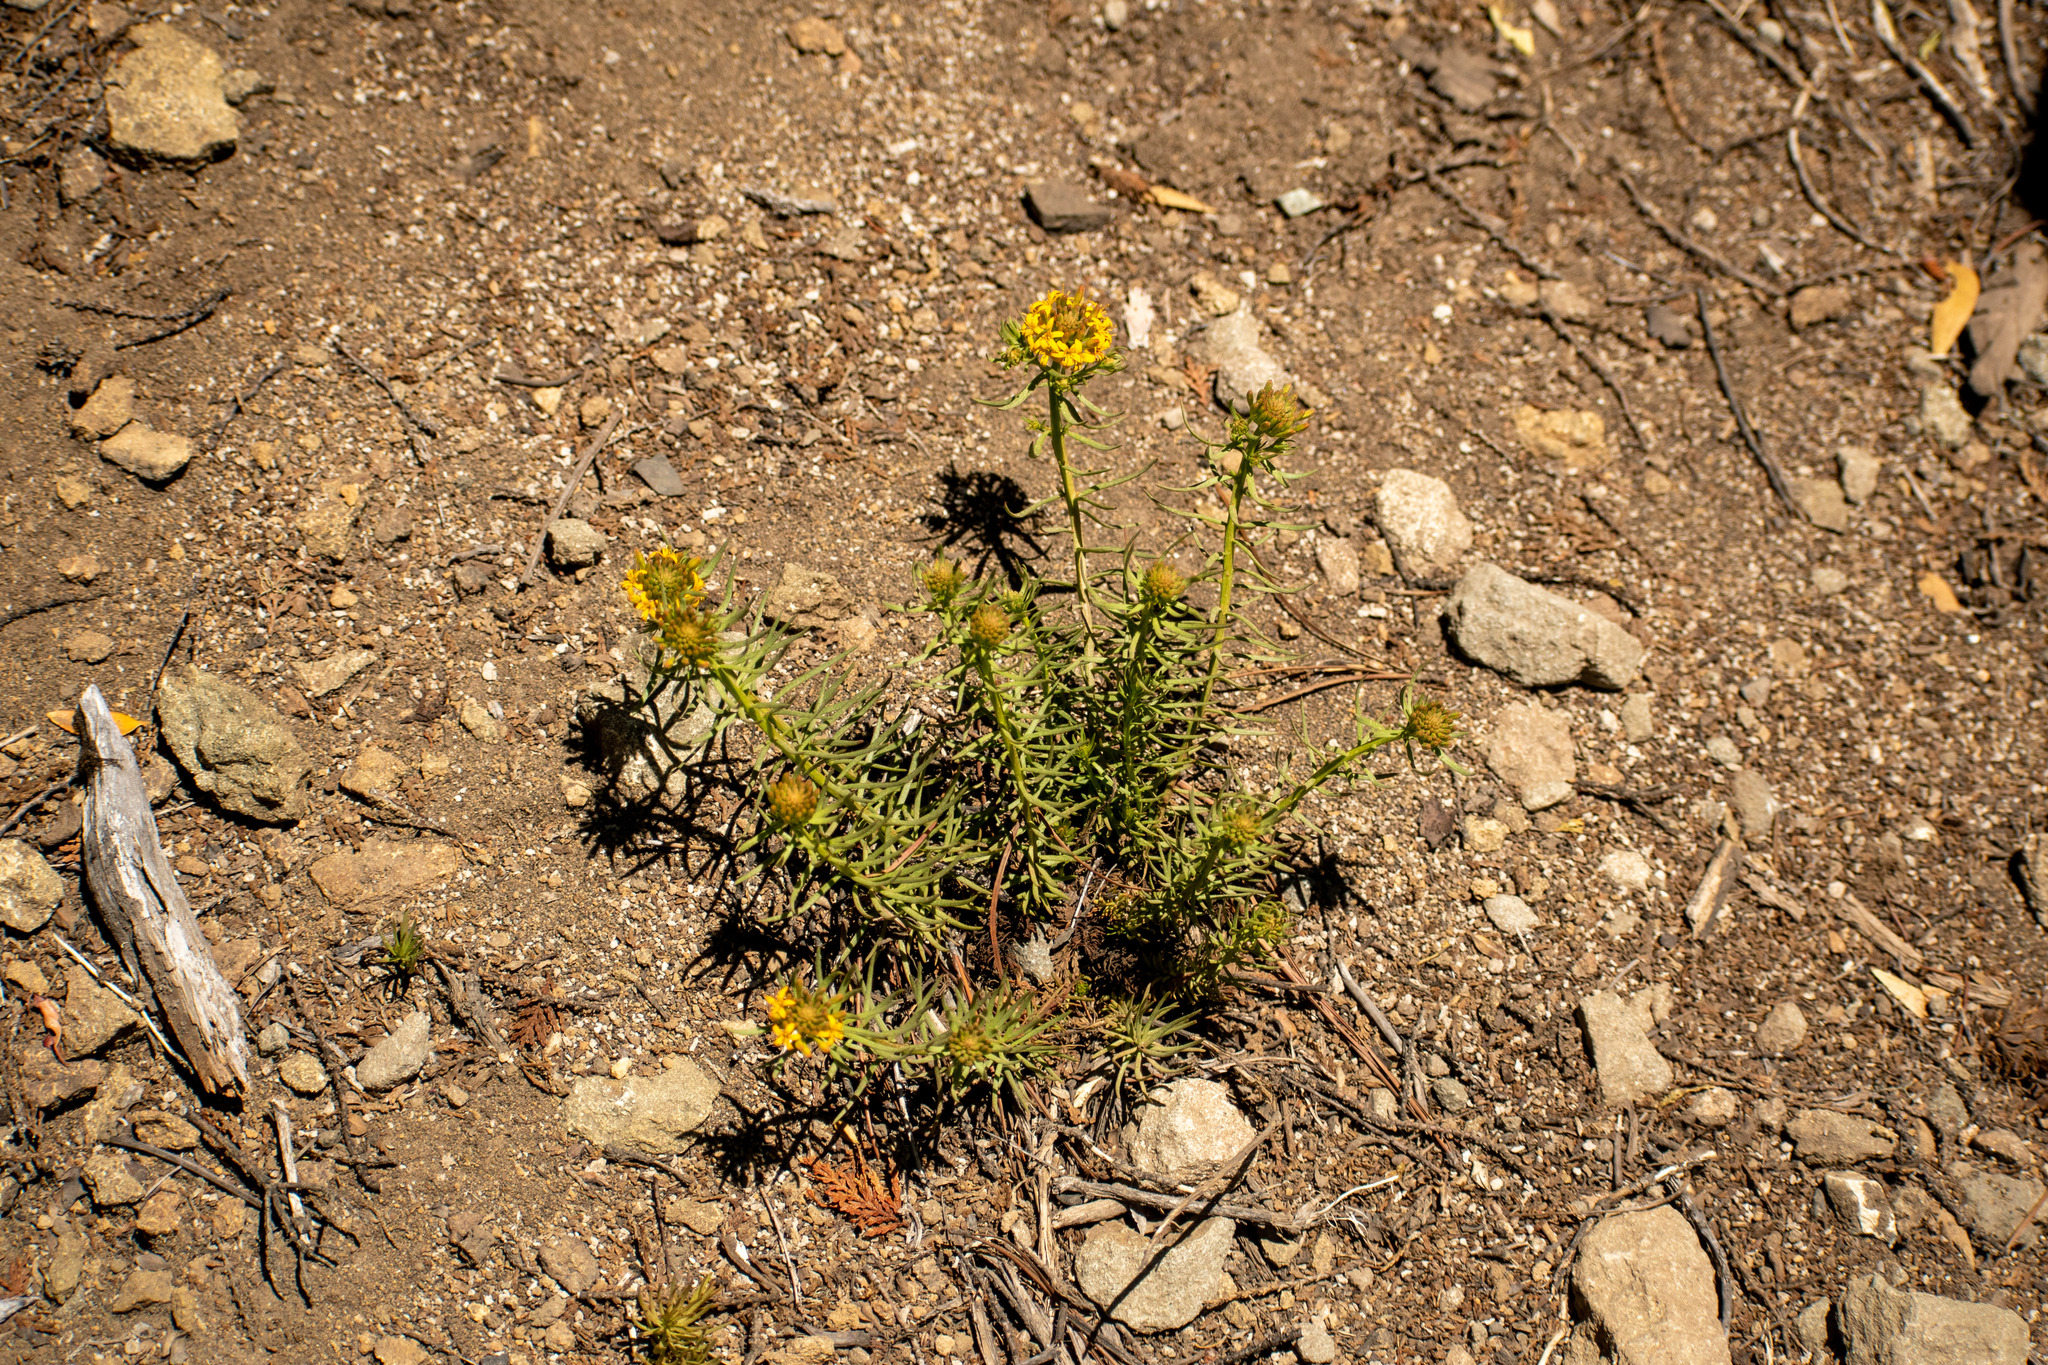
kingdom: Plantae
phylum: Tracheophyta
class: Magnoliopsida
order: Santalales
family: Schoepfiaceae
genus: Quinchamalium
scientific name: Quinchamalium chilense
